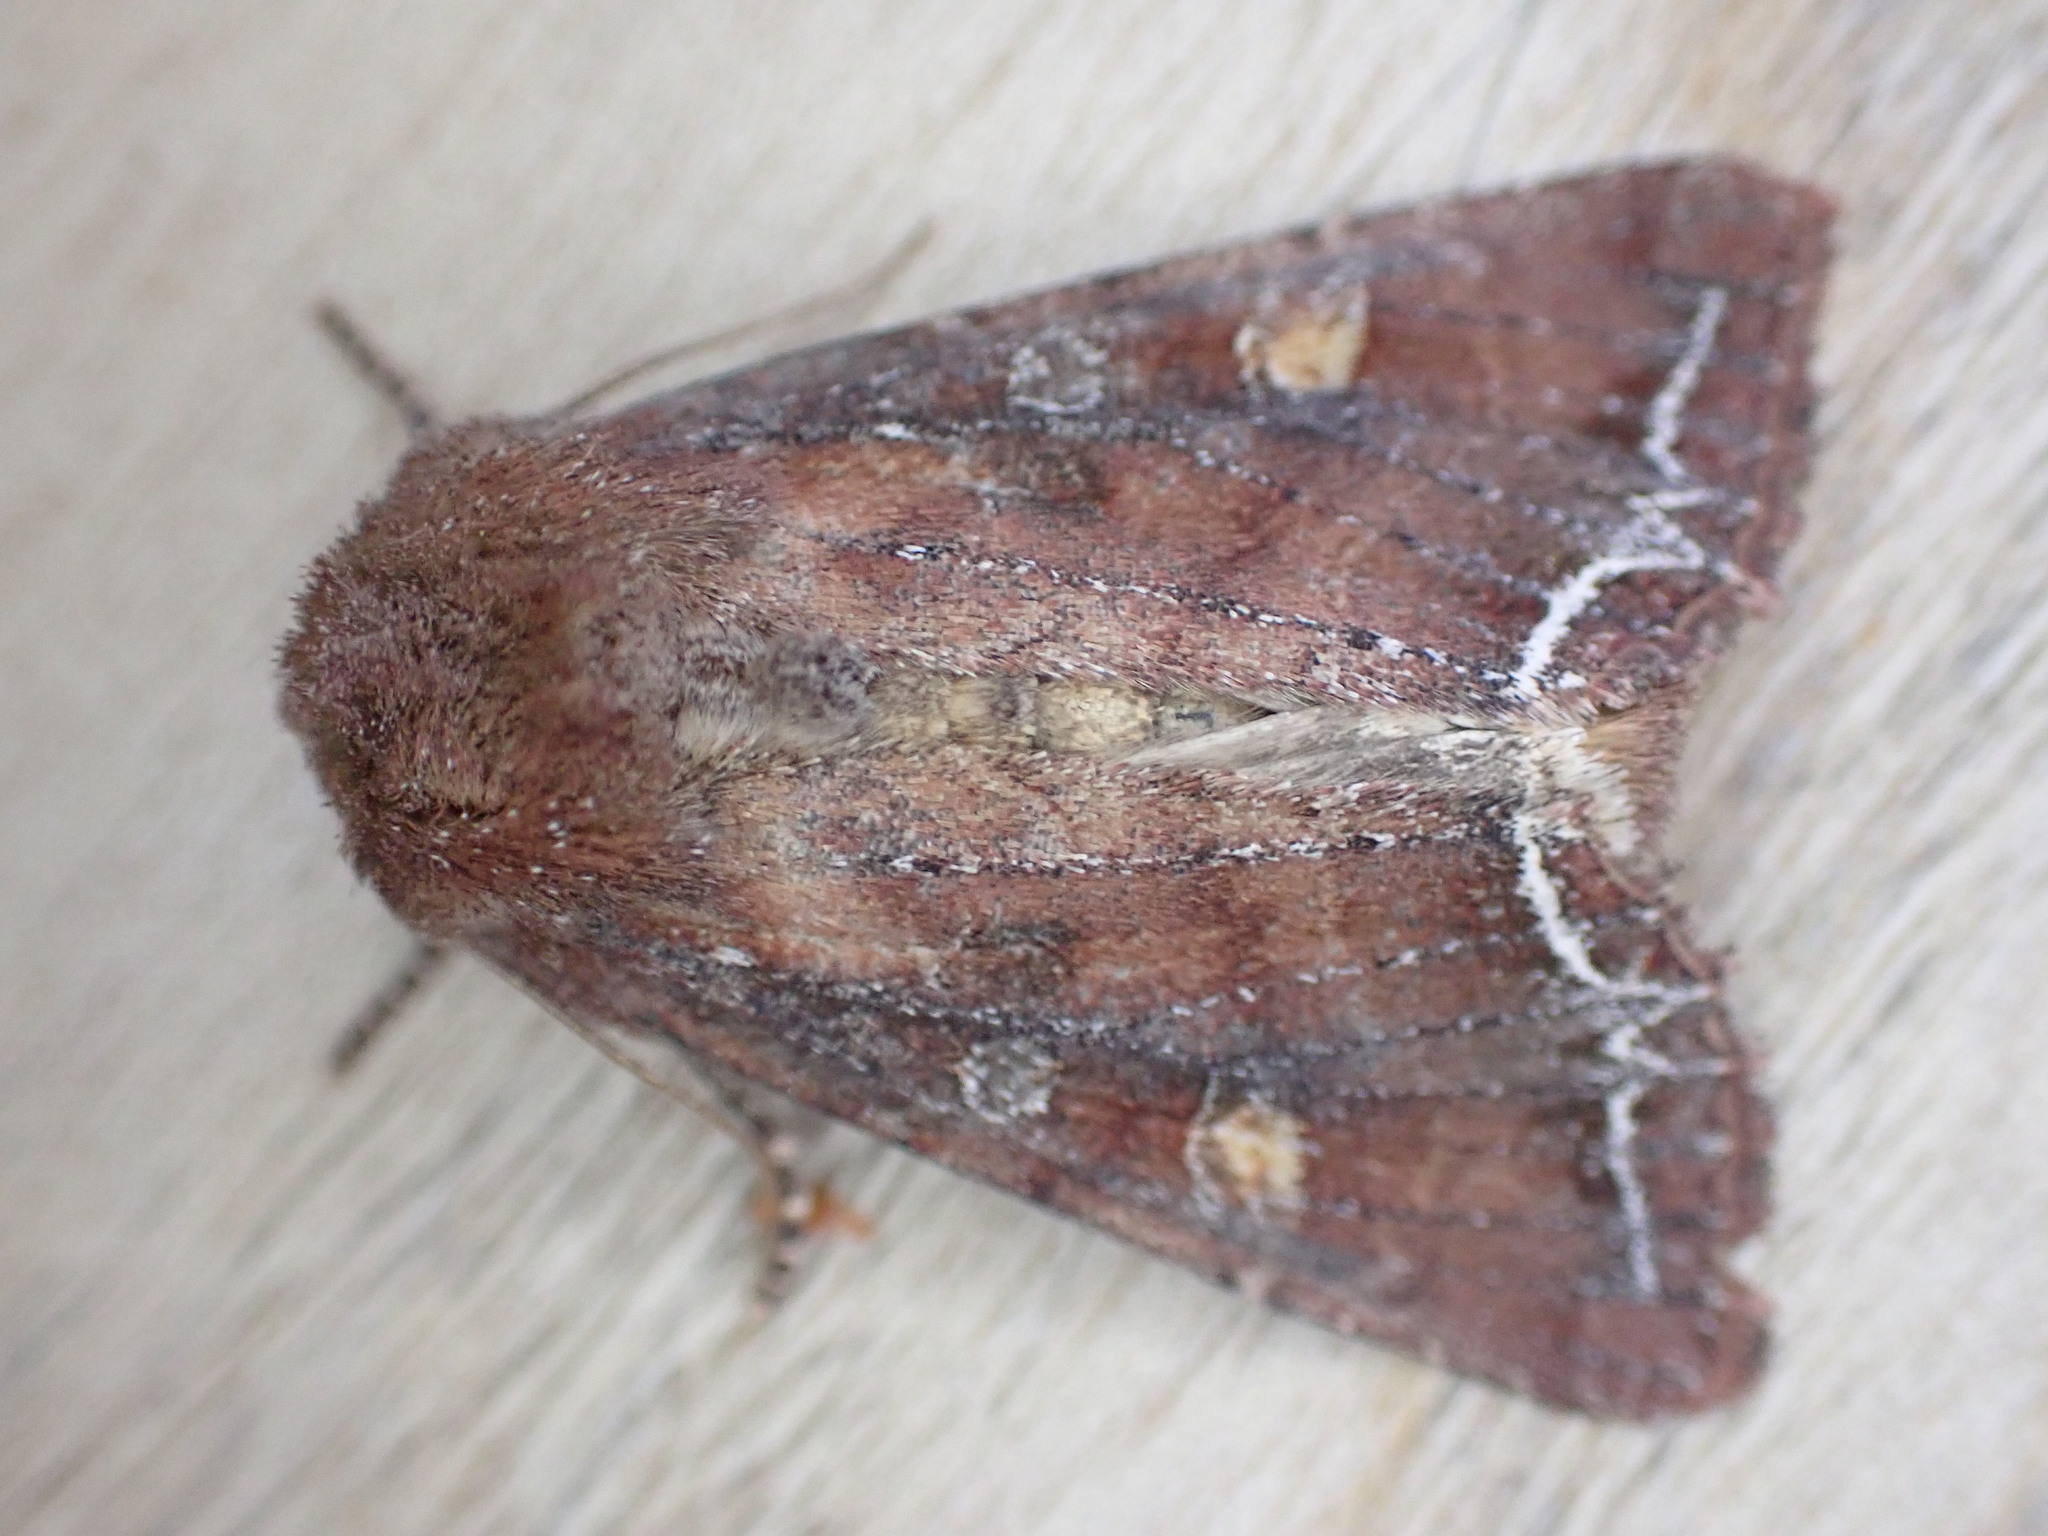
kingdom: Animalia
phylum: Arthropoda
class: Insecta
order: Lepidoptera
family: Noctuidae
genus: Lacanobia
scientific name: Lacanobia oleracea
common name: Bright-line brown-eye
